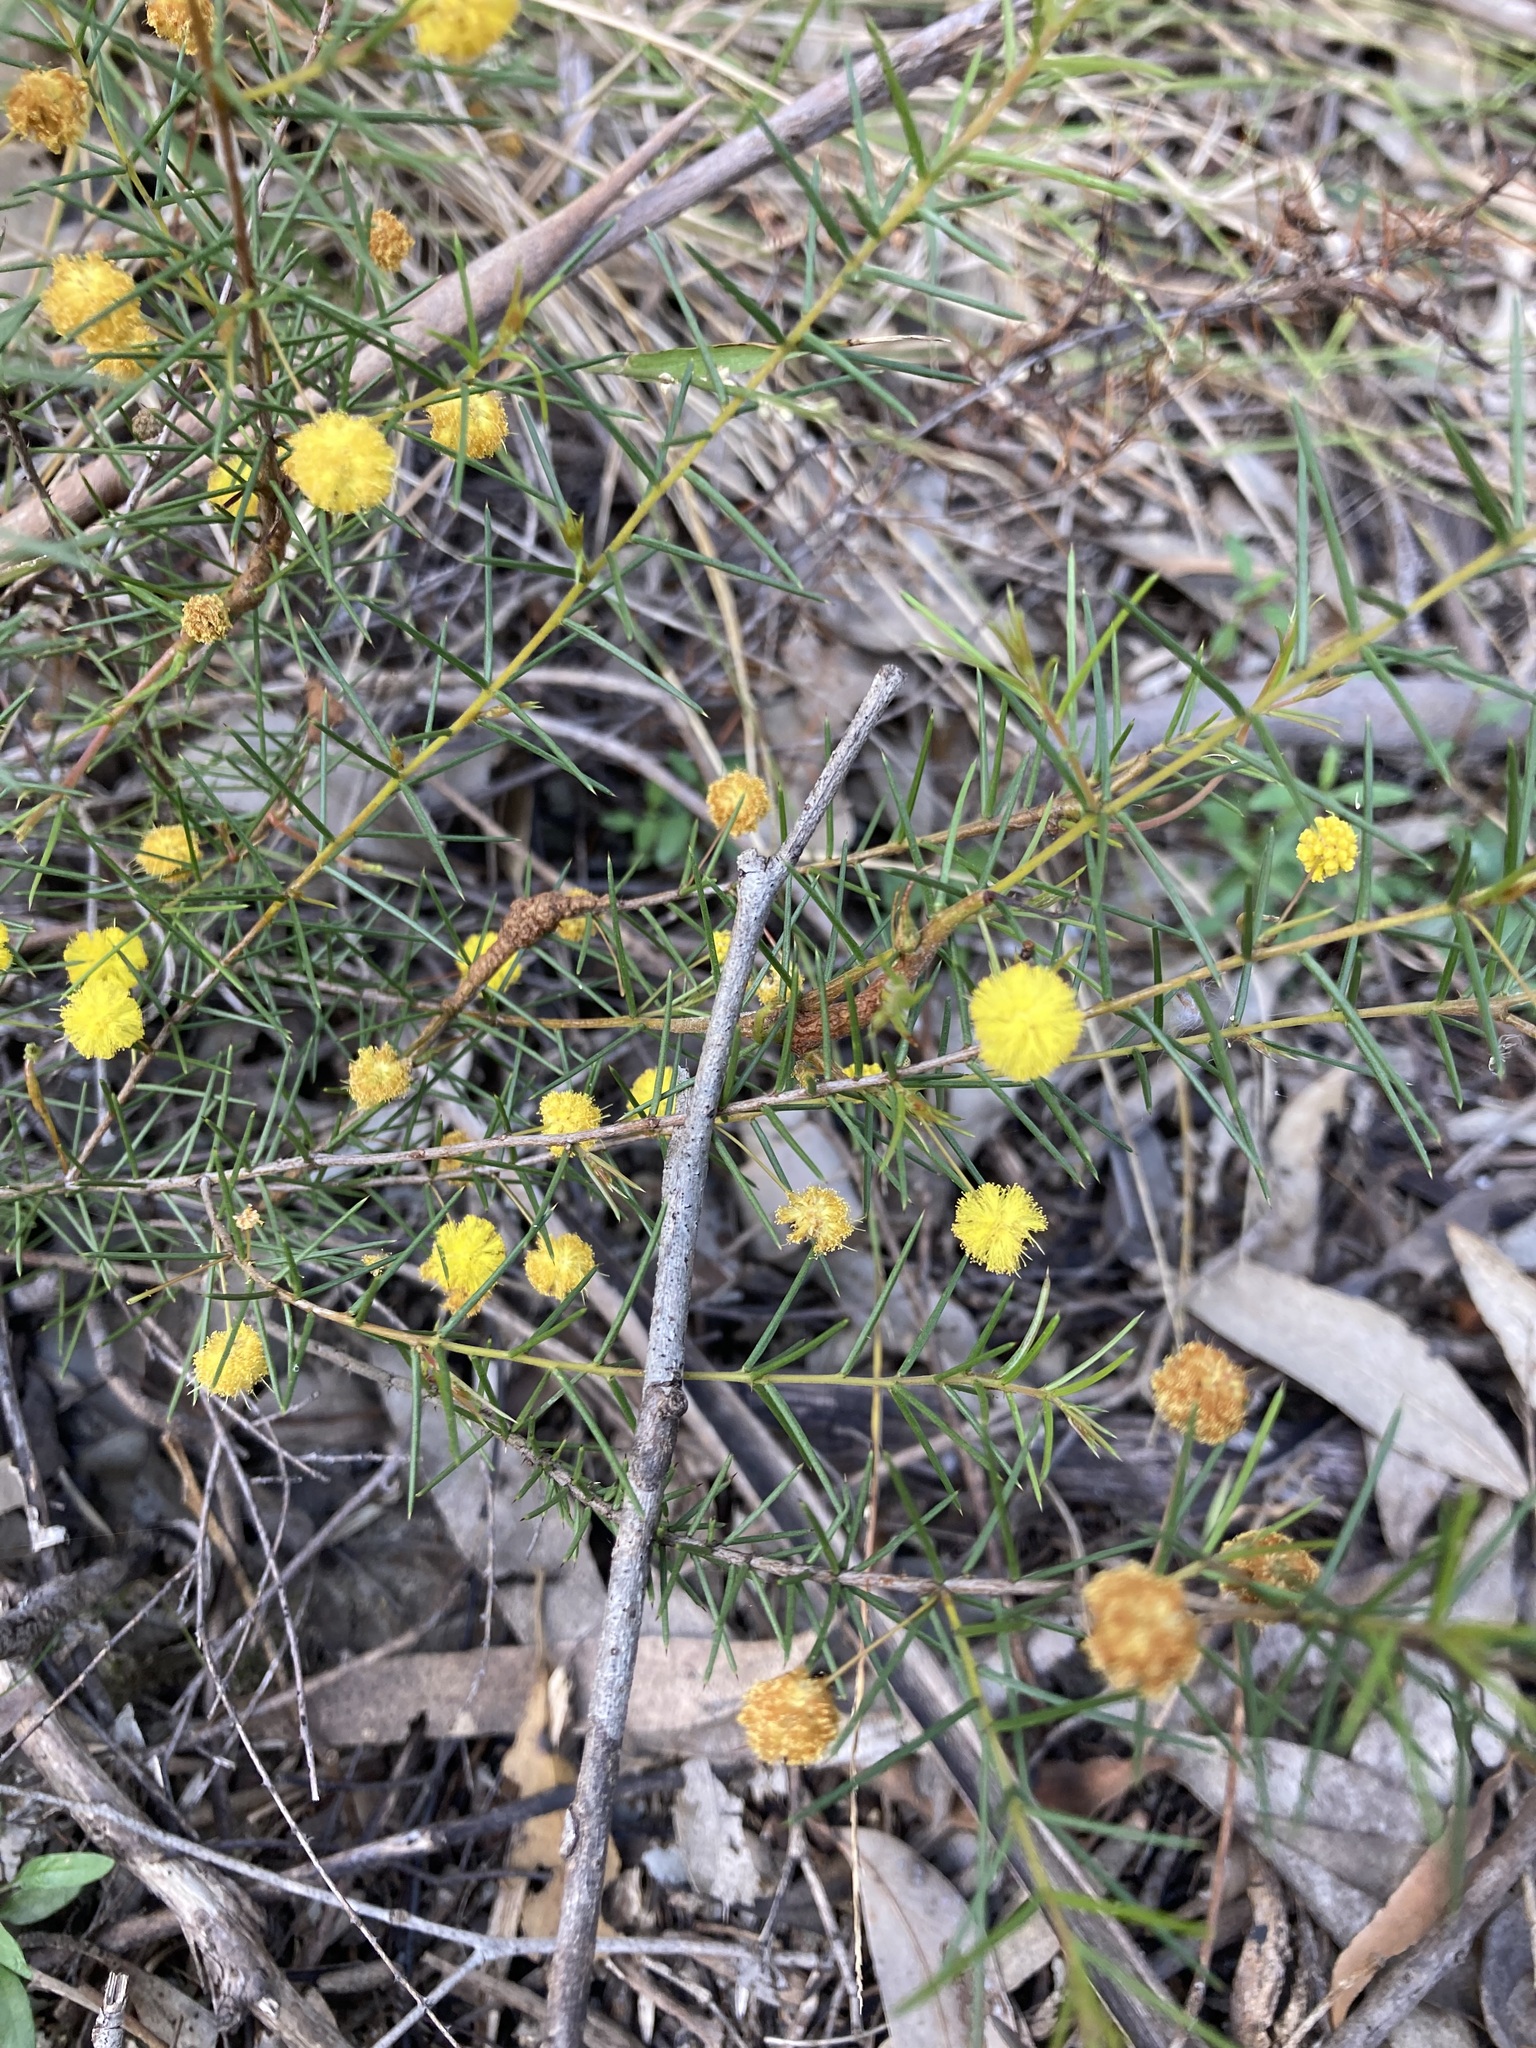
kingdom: Plantae
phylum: Tracheophyta
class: Magnoliopsida
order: Fabales
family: Fabaceae
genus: Acacia
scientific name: Acacia brownii
